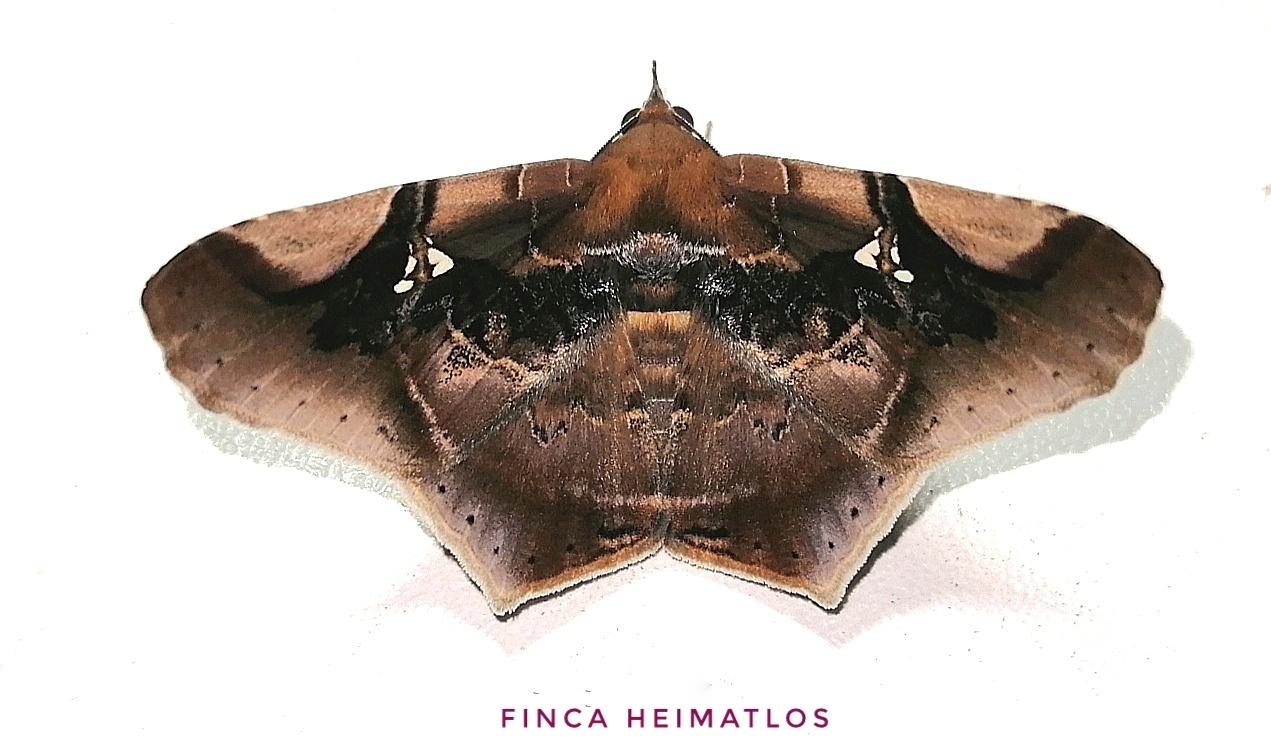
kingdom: Animalia
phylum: Arthropoda
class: Insecta
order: Lepidoptera
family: Erebidae
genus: Euclystis
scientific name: Euclystis guerini
